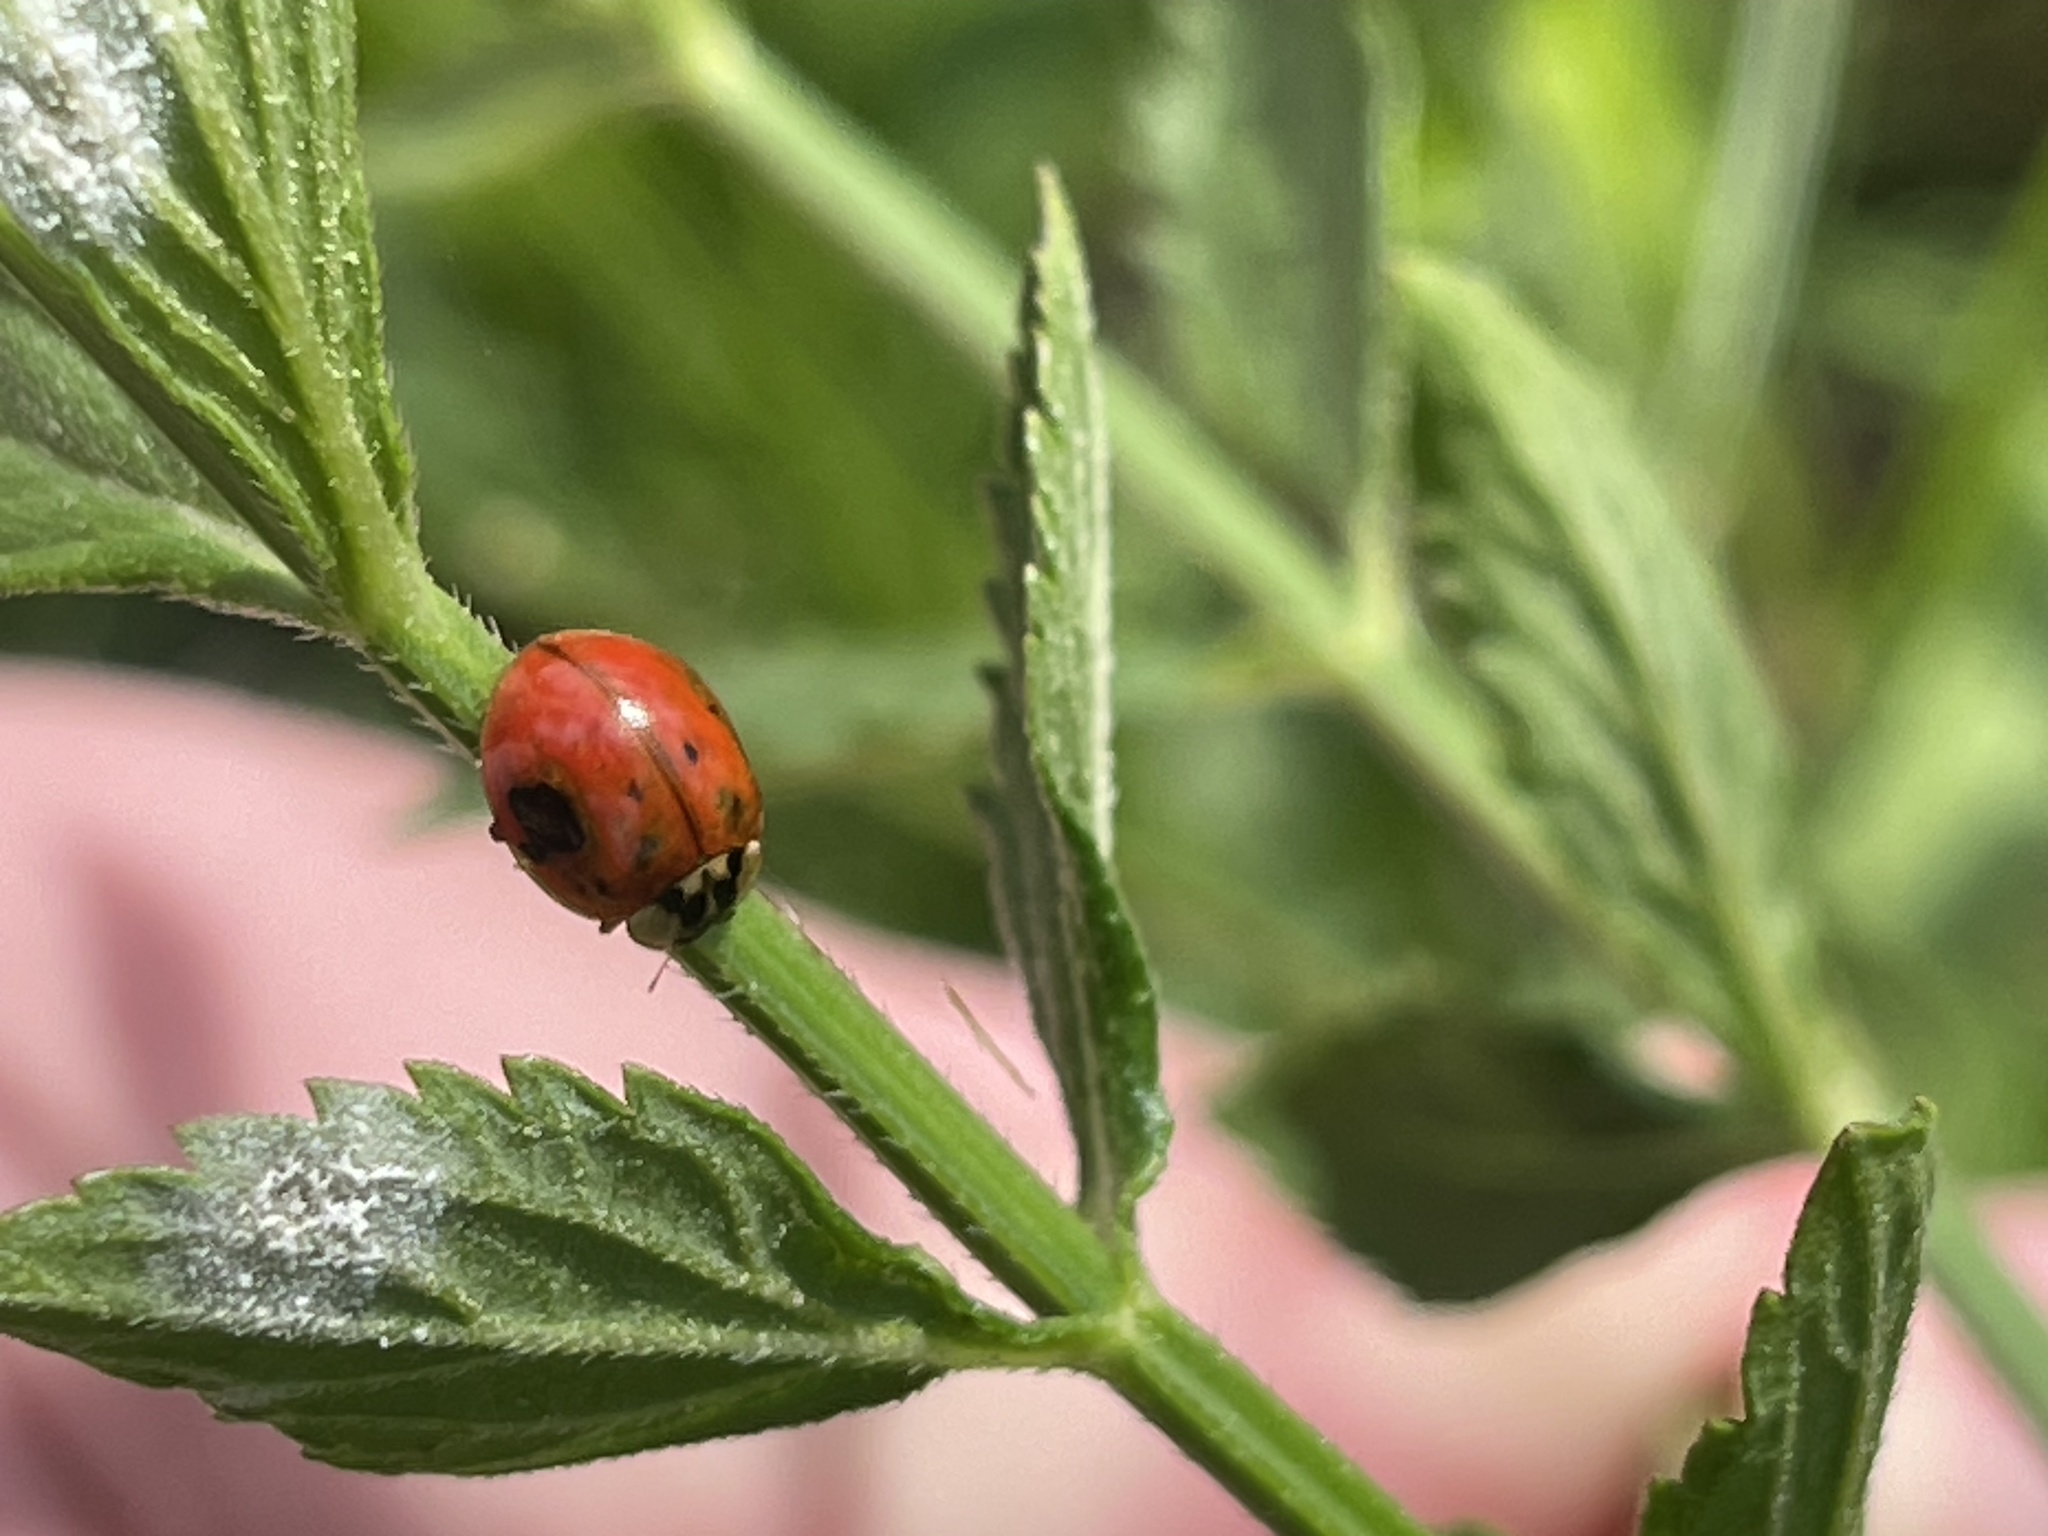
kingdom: Animalia
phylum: Arthropoda
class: Insecta
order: Coleoptera
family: Coccinellidae
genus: Harmonia
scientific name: Harmonia axyridis
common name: Harlequin ladybird
